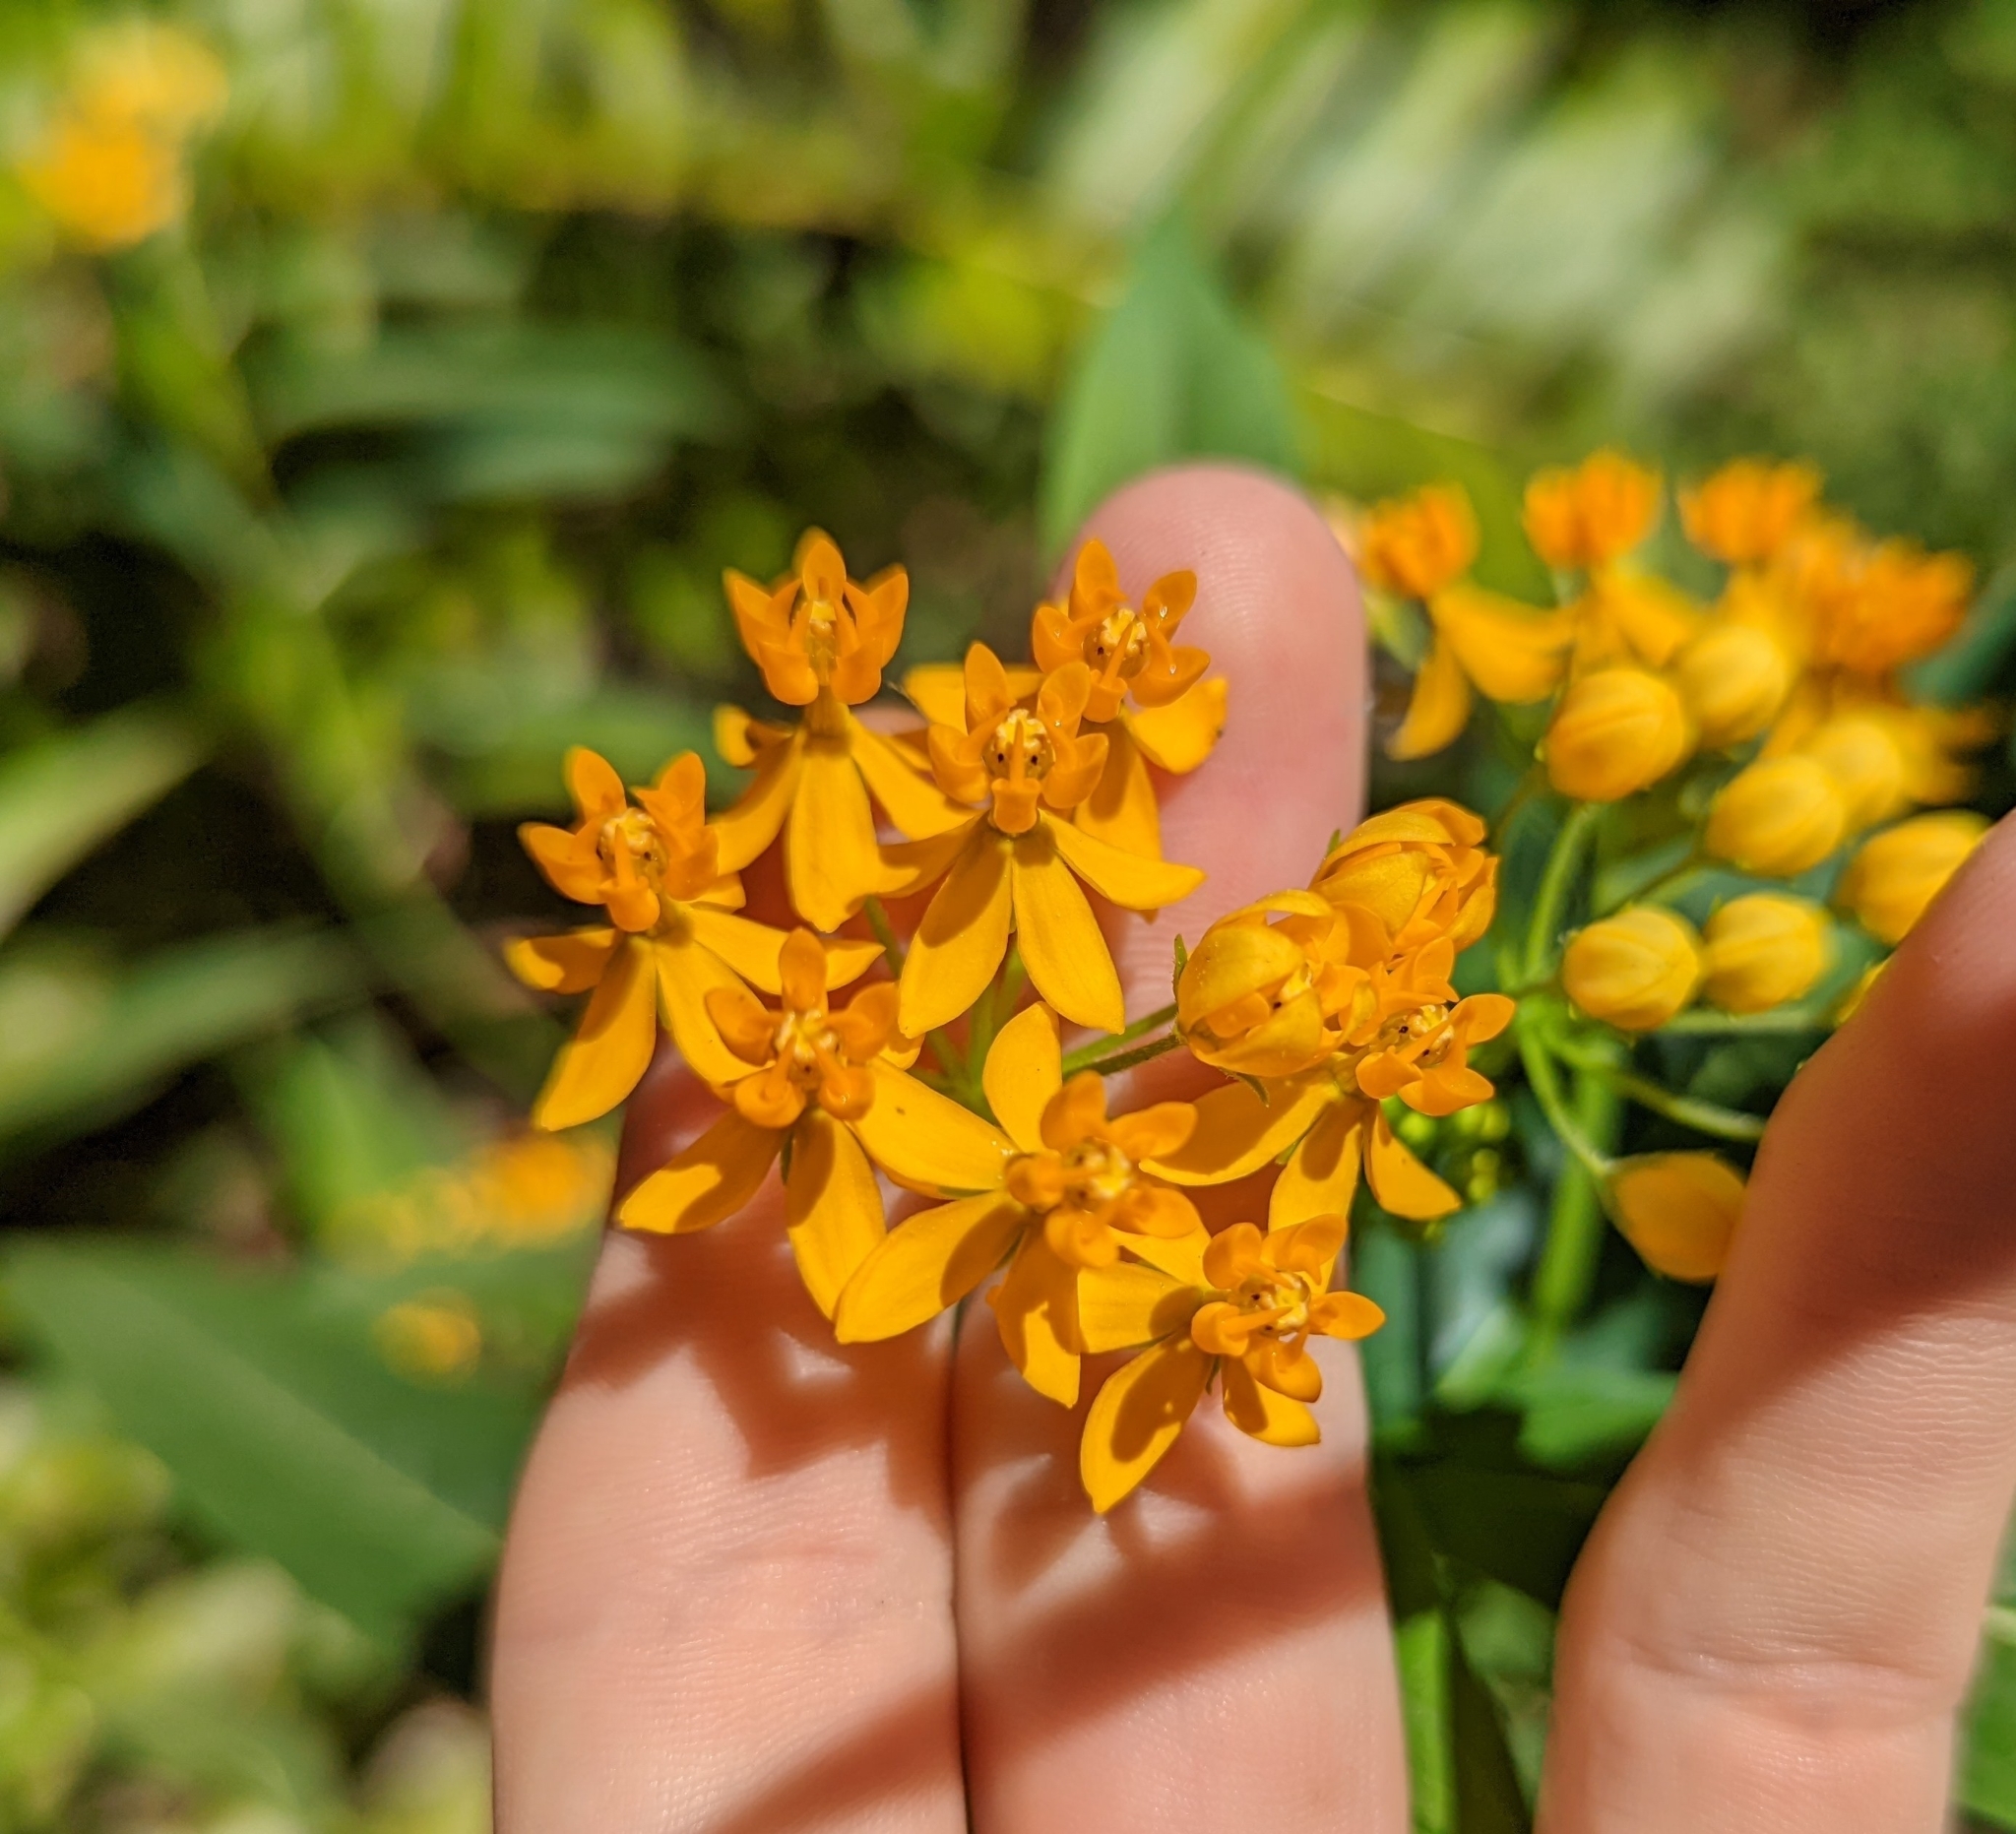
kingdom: Plantae
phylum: Tracheophyta
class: Magnoliopsida
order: Gentianales
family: Apocynaceae
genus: Asclepias
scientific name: Asclepias curassavica
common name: Bloodflower
